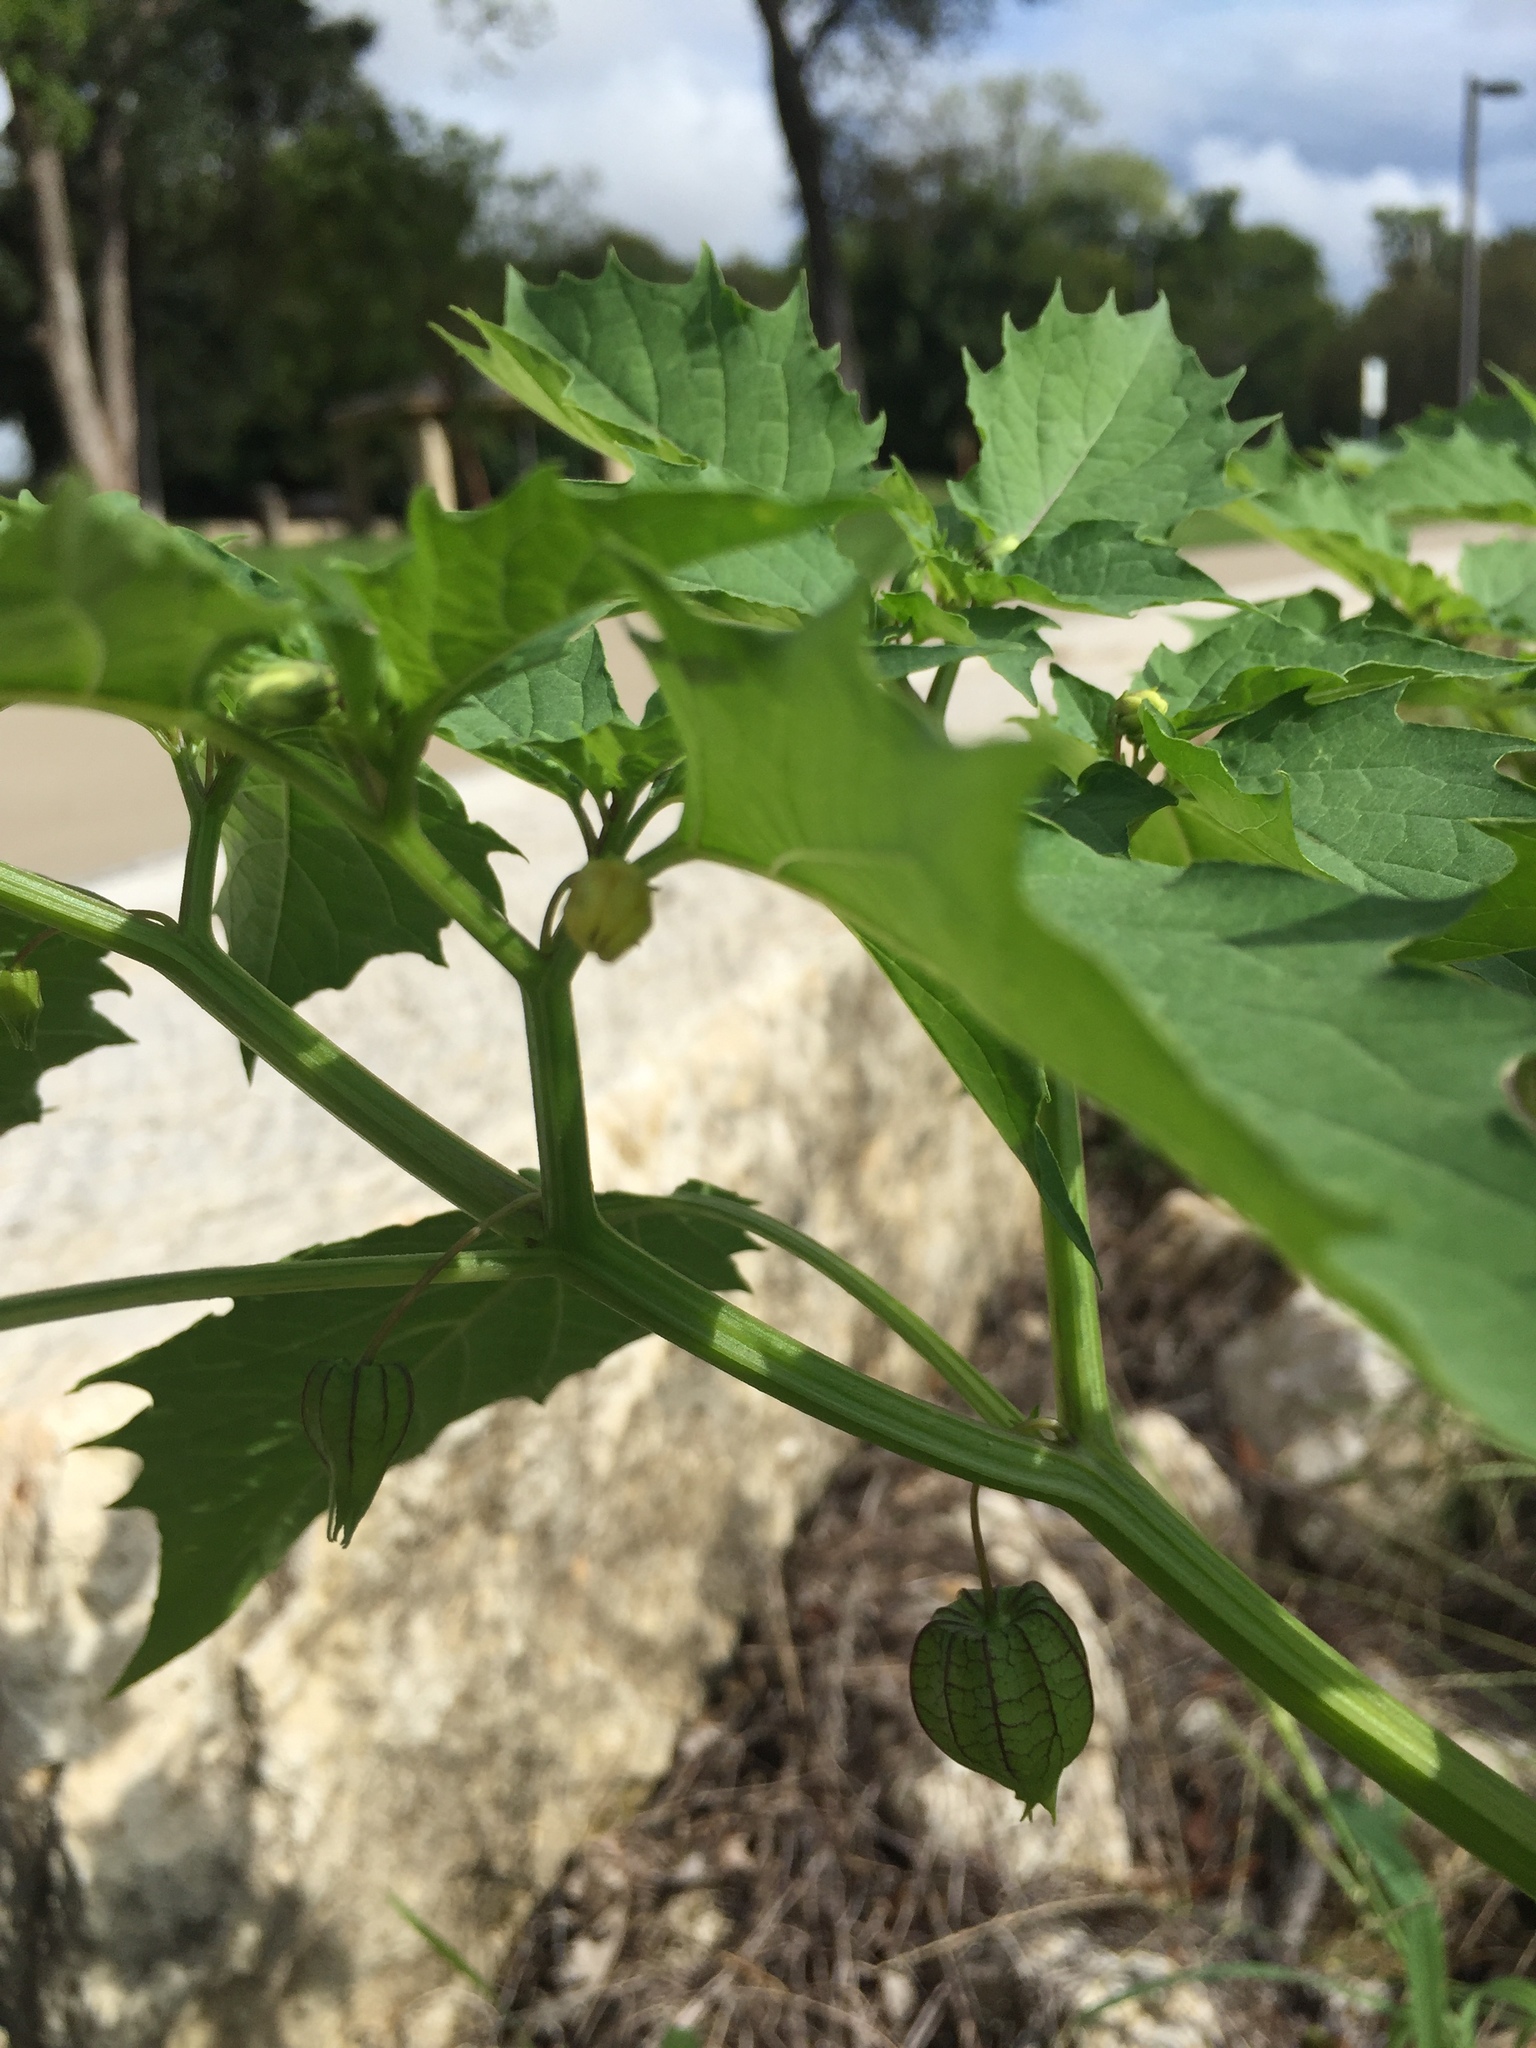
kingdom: Plantae
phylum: Tracheophyta
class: Magnoliopsida
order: Solanales
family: Solanaceae
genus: Physalis
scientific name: Physalis angulata
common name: Angular winter-cherry
